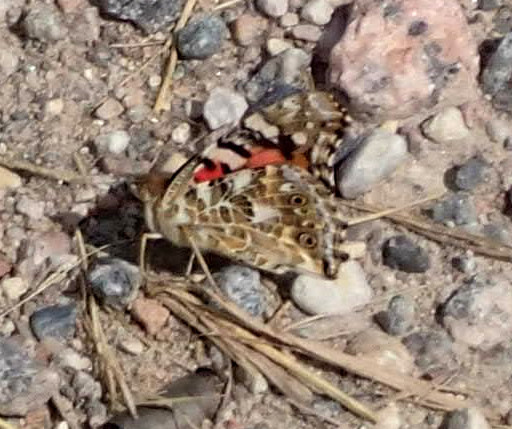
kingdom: Animalia
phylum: Arthropoda
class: Insecta
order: Lepidoptera
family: Nymphalidae
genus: Vanessa
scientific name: Vanessa cardui
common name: Painted lady
